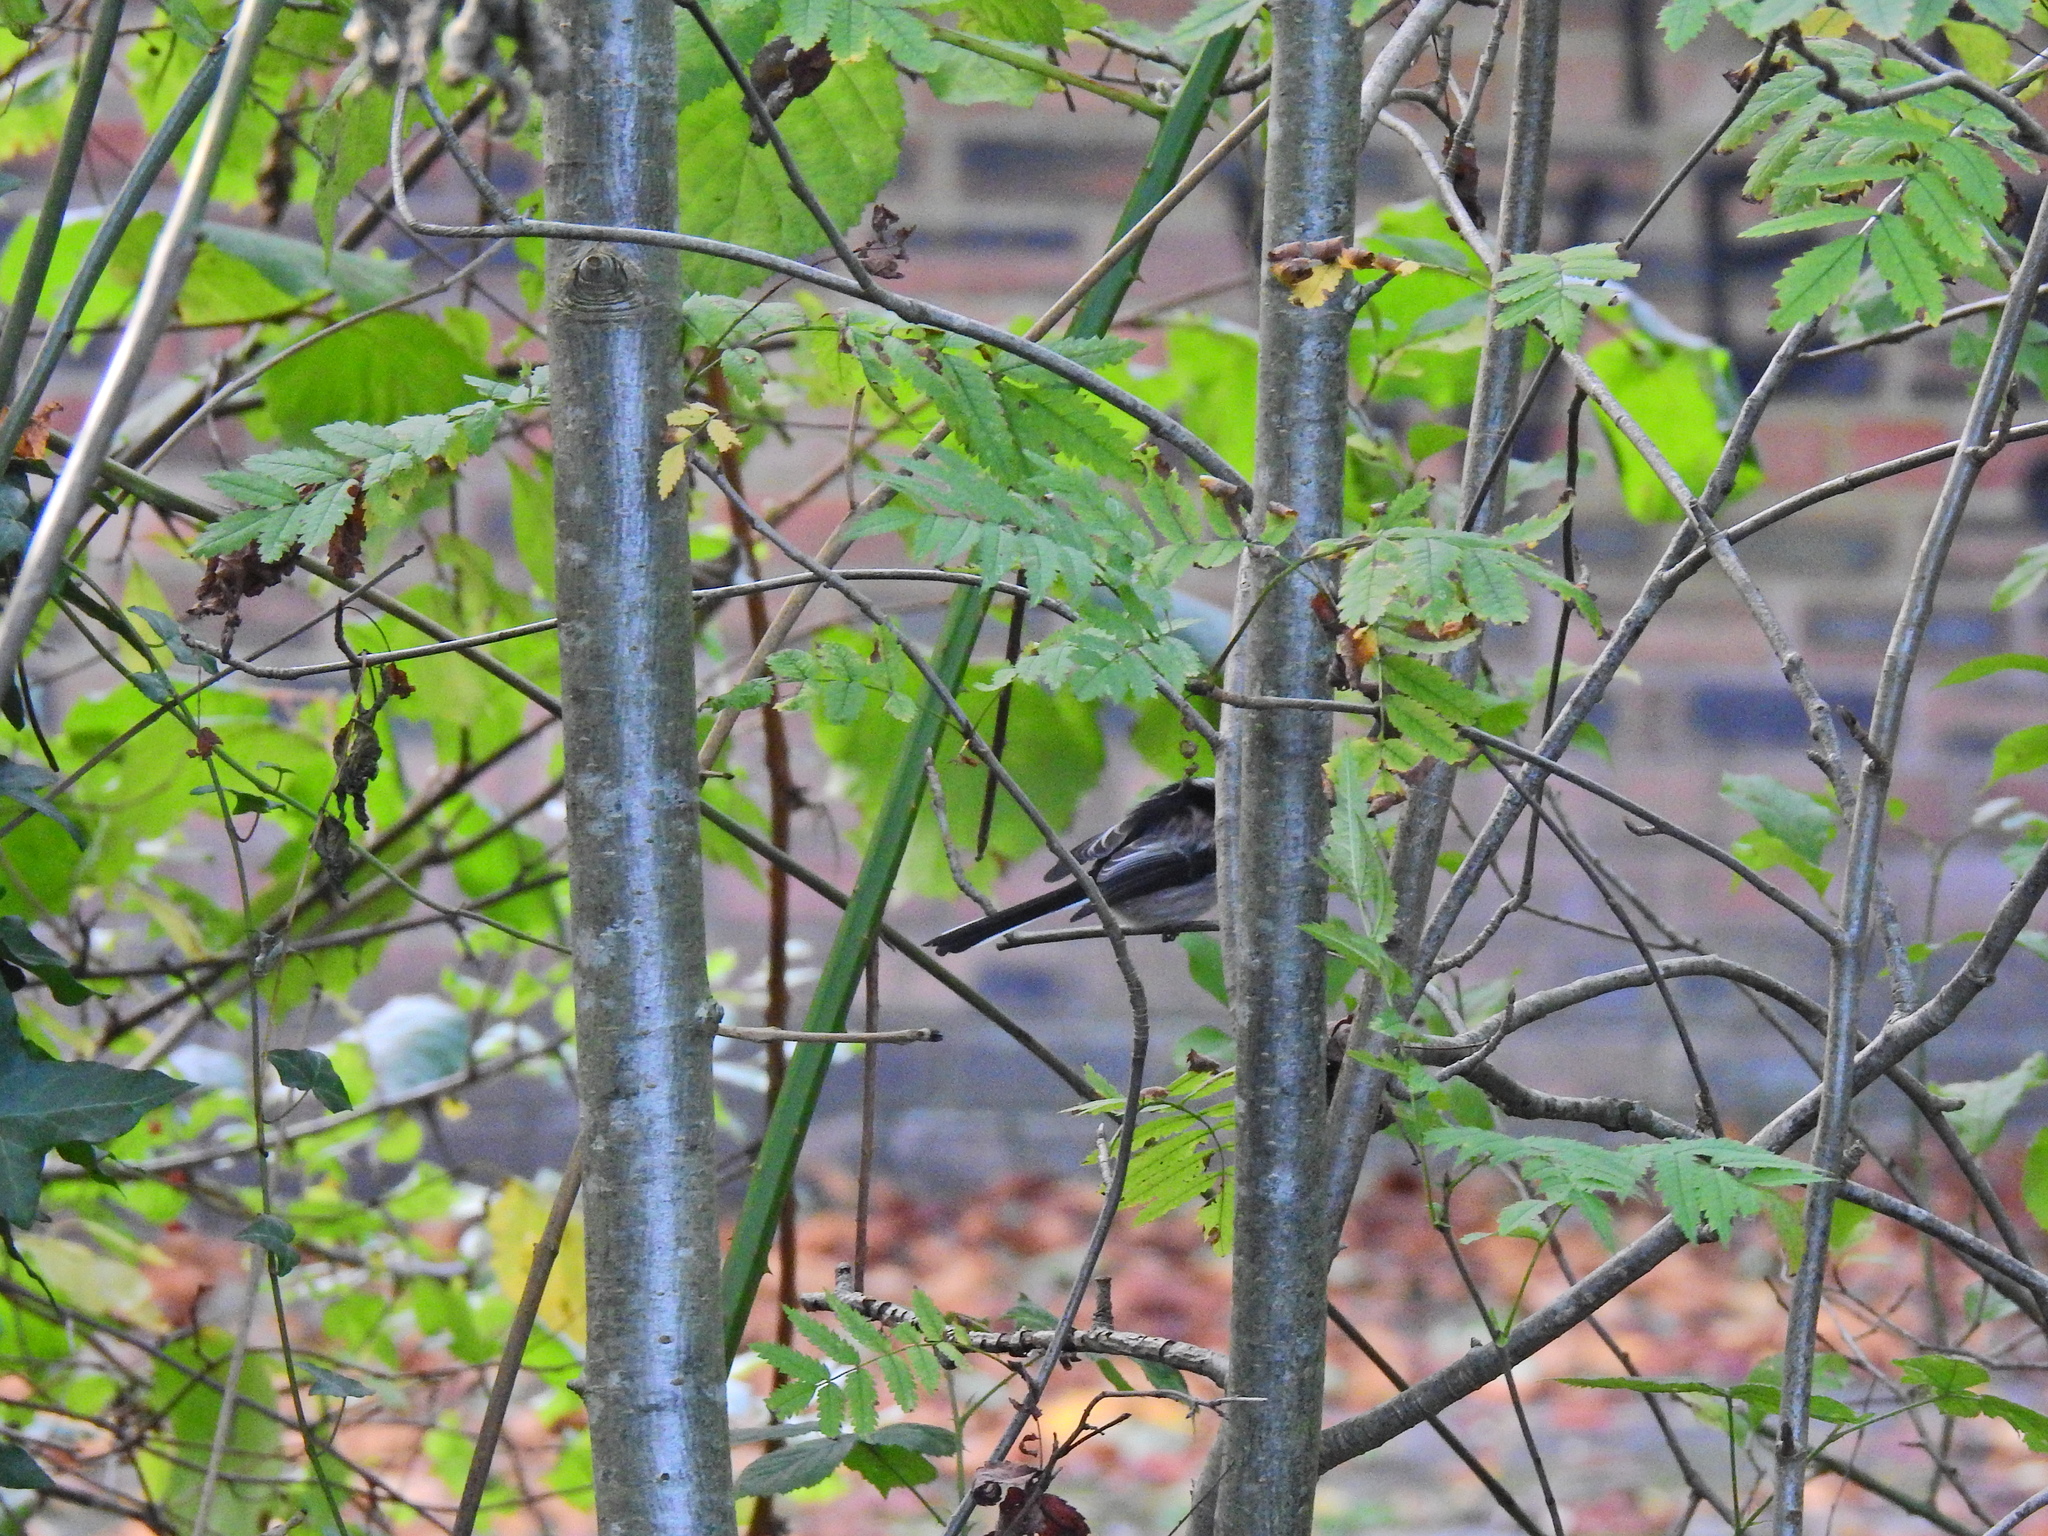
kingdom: Animalia
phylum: Chordata
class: Aves
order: Passeriformes
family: Aegithalidae
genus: Aegithalos
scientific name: Aegithalos caudatus
